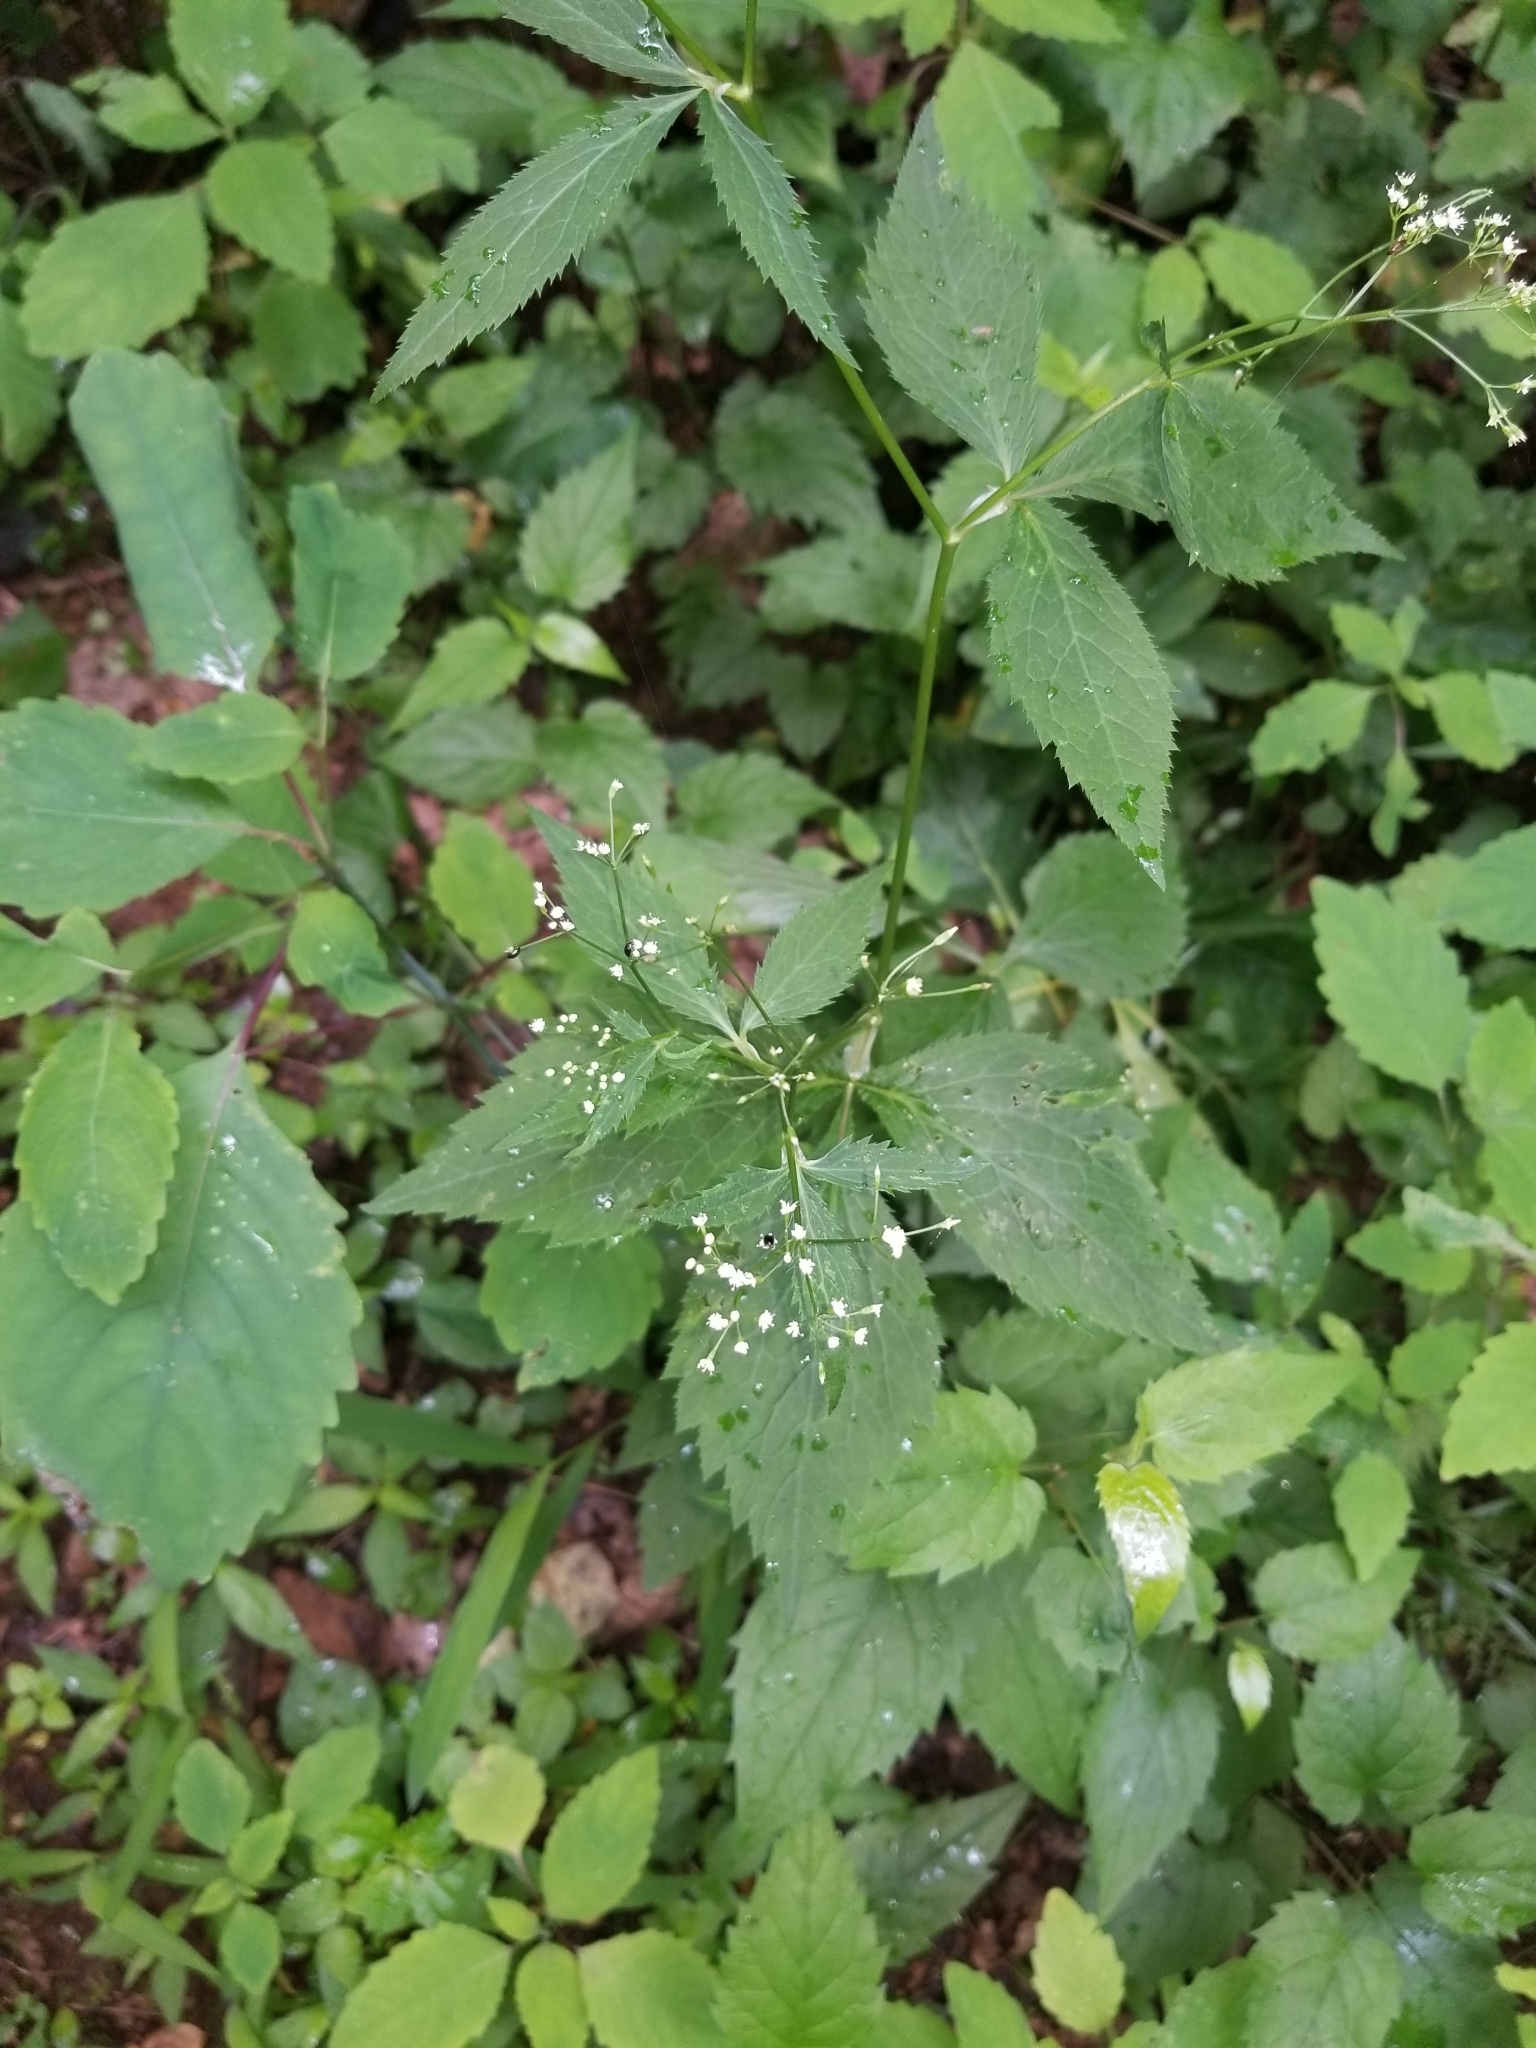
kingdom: Plantae
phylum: Tracheophyta
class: Magnoliopsida
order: Apiales
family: Apiaceae
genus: Cryptotaenia
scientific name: Cryptotaenia canadensis
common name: Honewort
